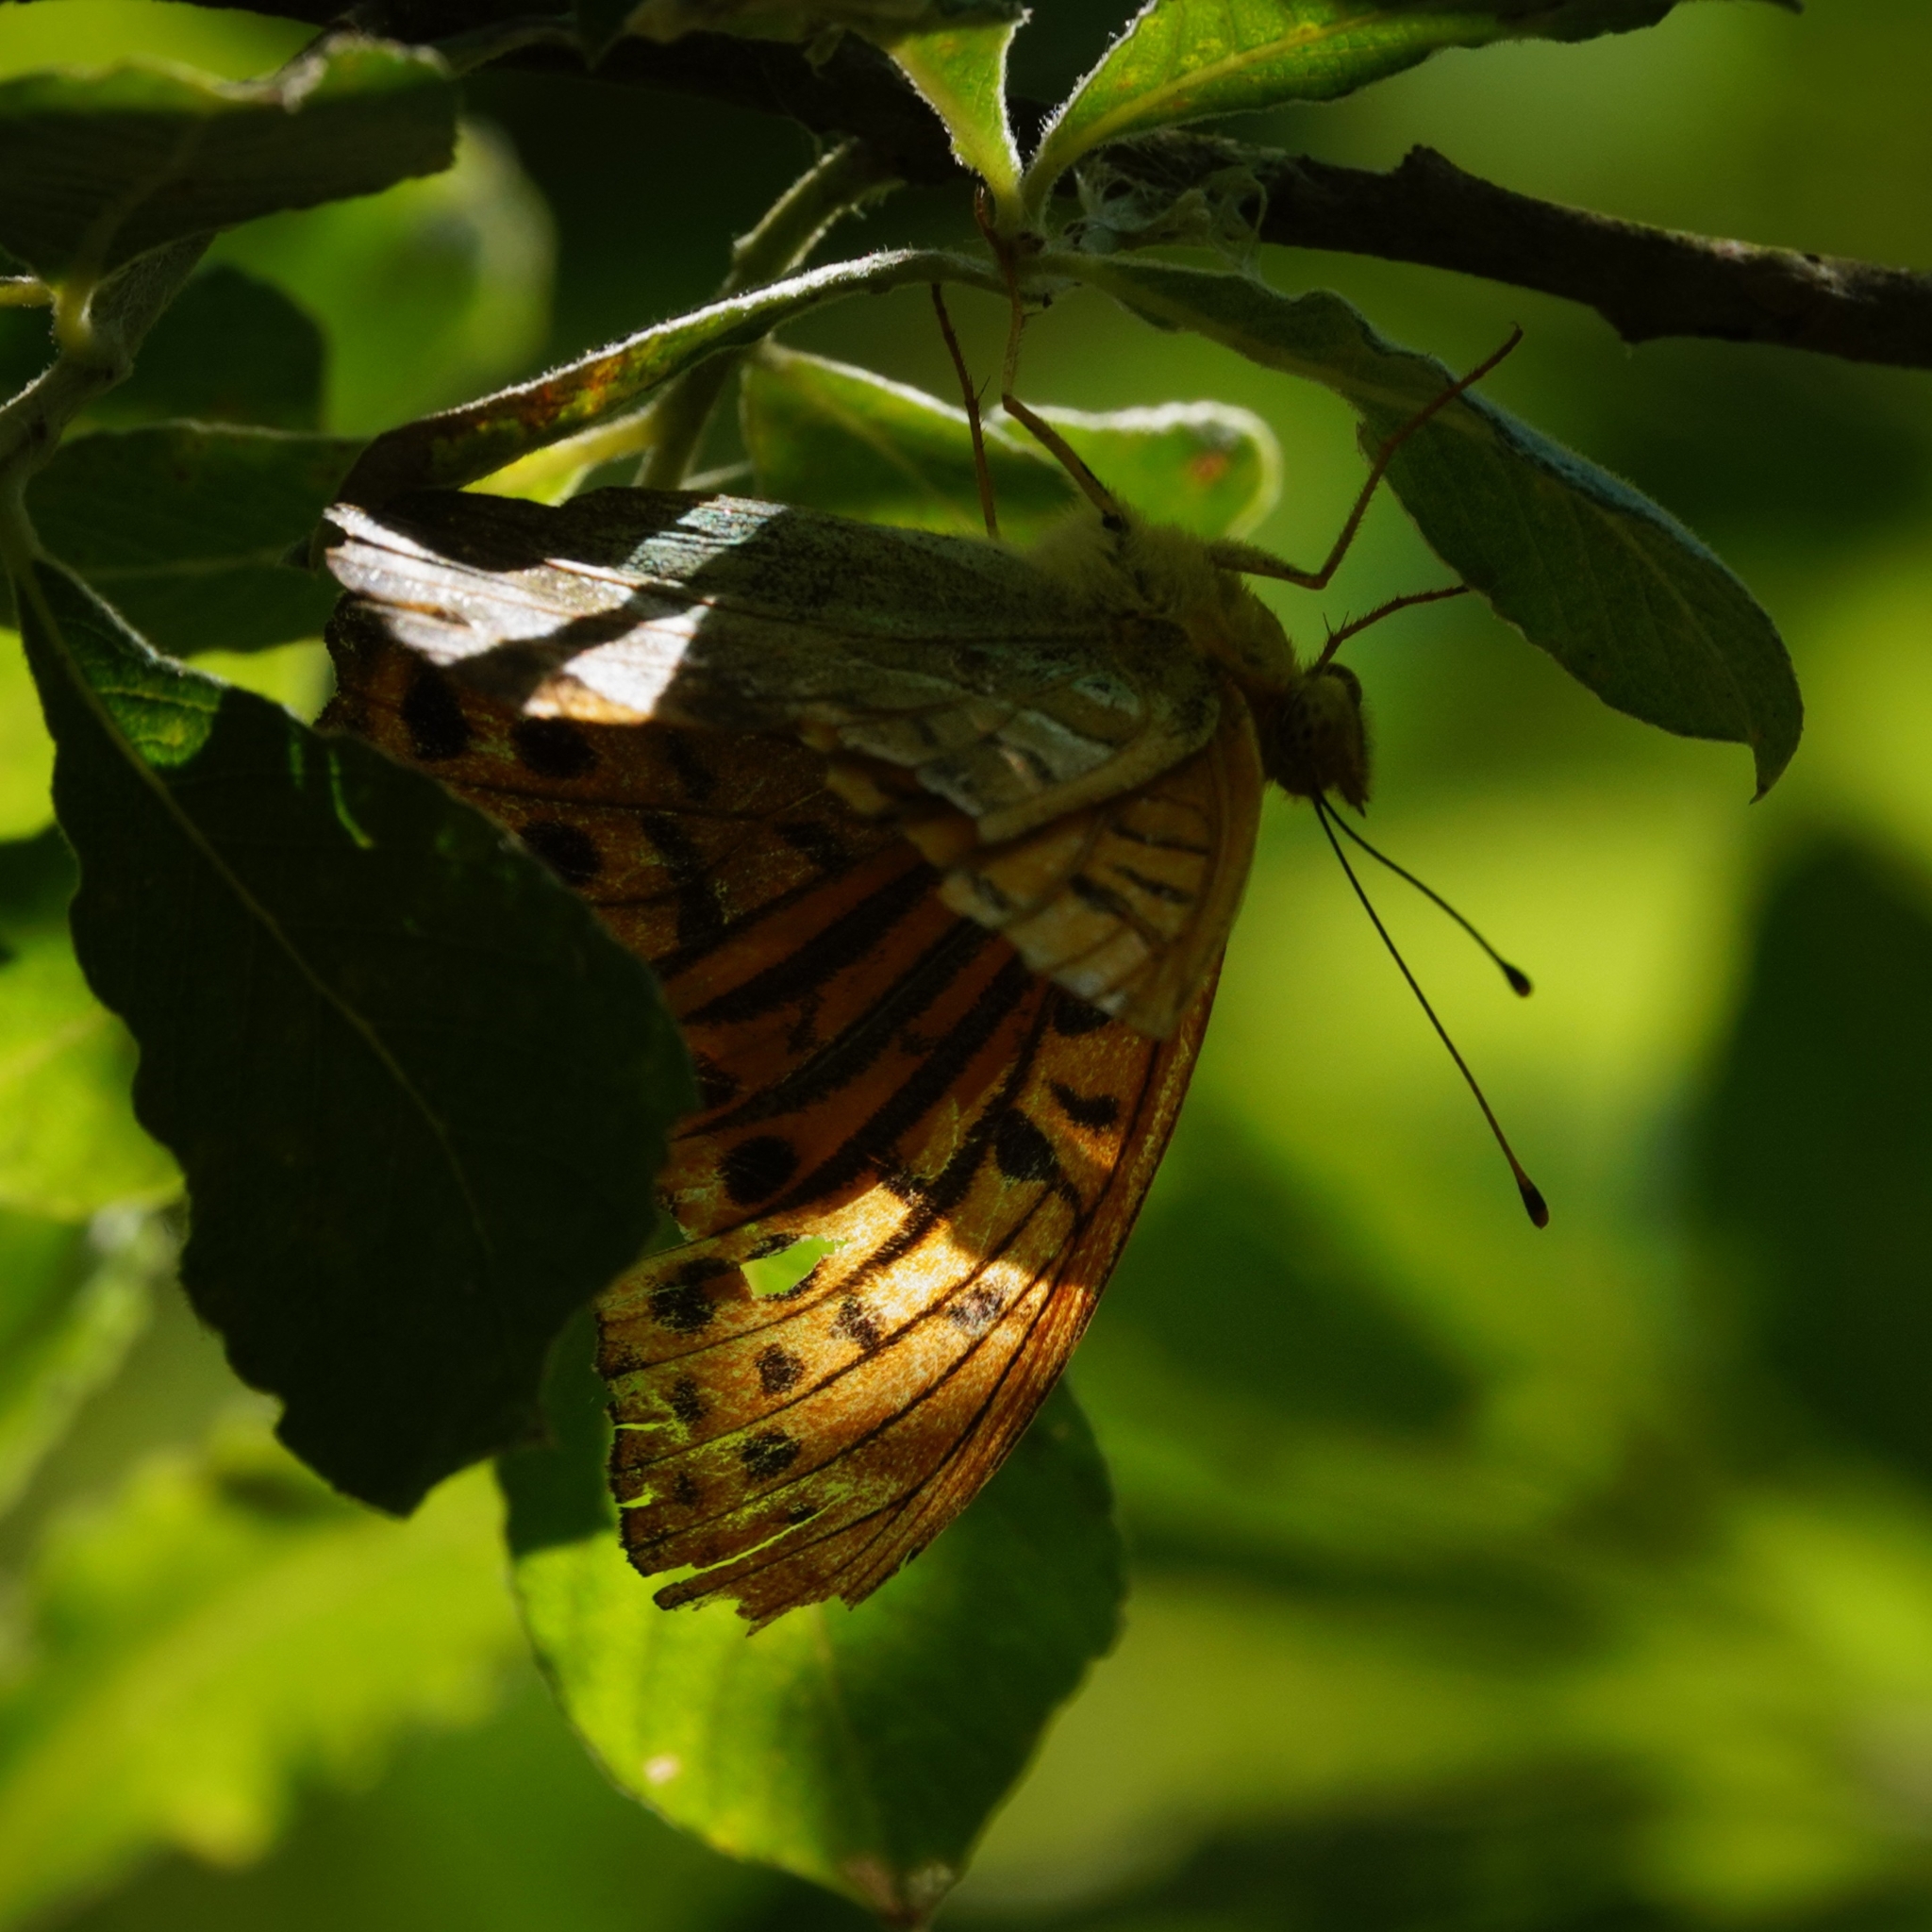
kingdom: Animalia
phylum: Arthropoda
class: Insecta
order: Lepidoptera
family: Nymphalidae
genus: Argynnis
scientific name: Argynnis paphia
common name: Silver-washed fritillary
